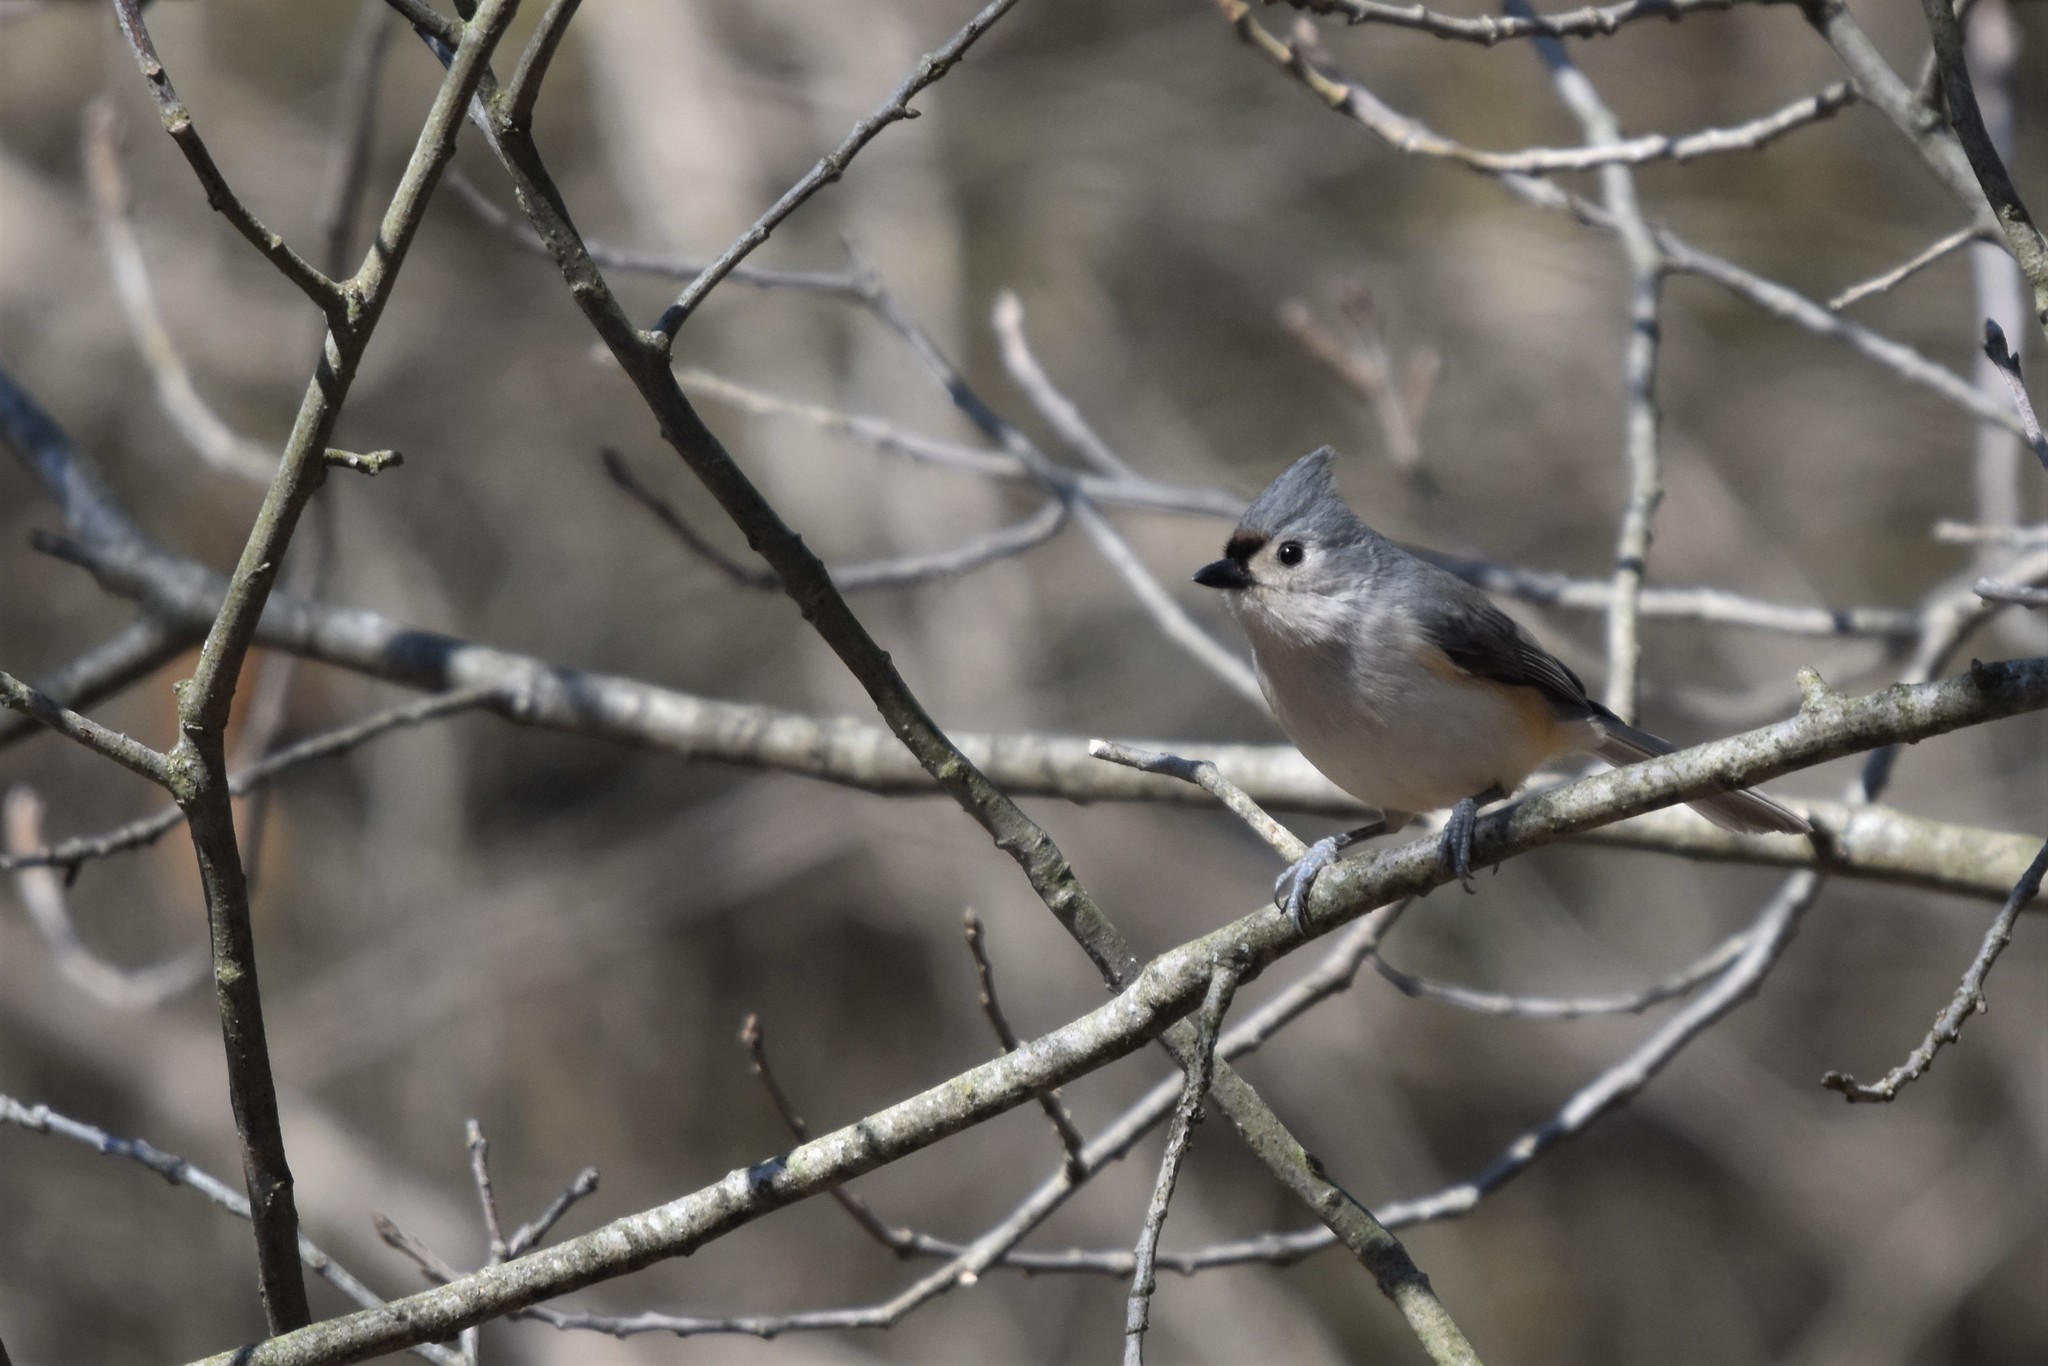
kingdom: Animalia
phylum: Chordata
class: Aves
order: Passeriformes
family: Paridae
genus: Baeolophus
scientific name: Baeolophus bicolor
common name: Tufted titmouse
